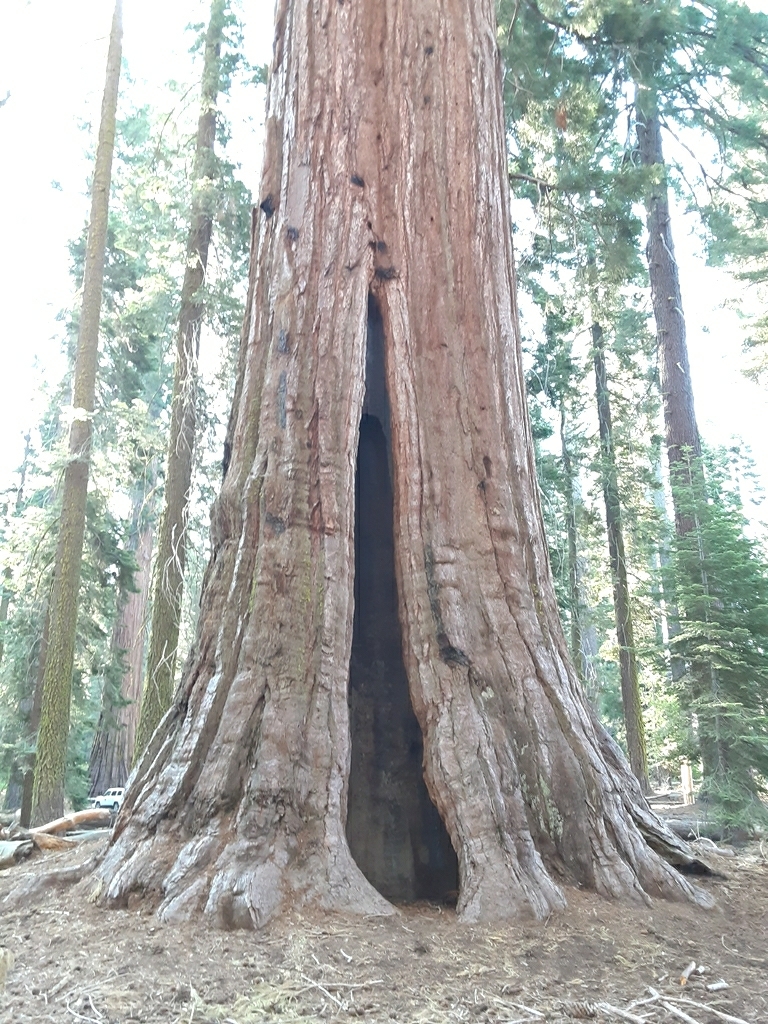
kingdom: Plantae
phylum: Tracheophyta
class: Pinopsida
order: Pinales
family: Cupressaceae
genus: Sequoiadendron
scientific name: Sequoiadendron giganteum
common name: Wellingtonia
